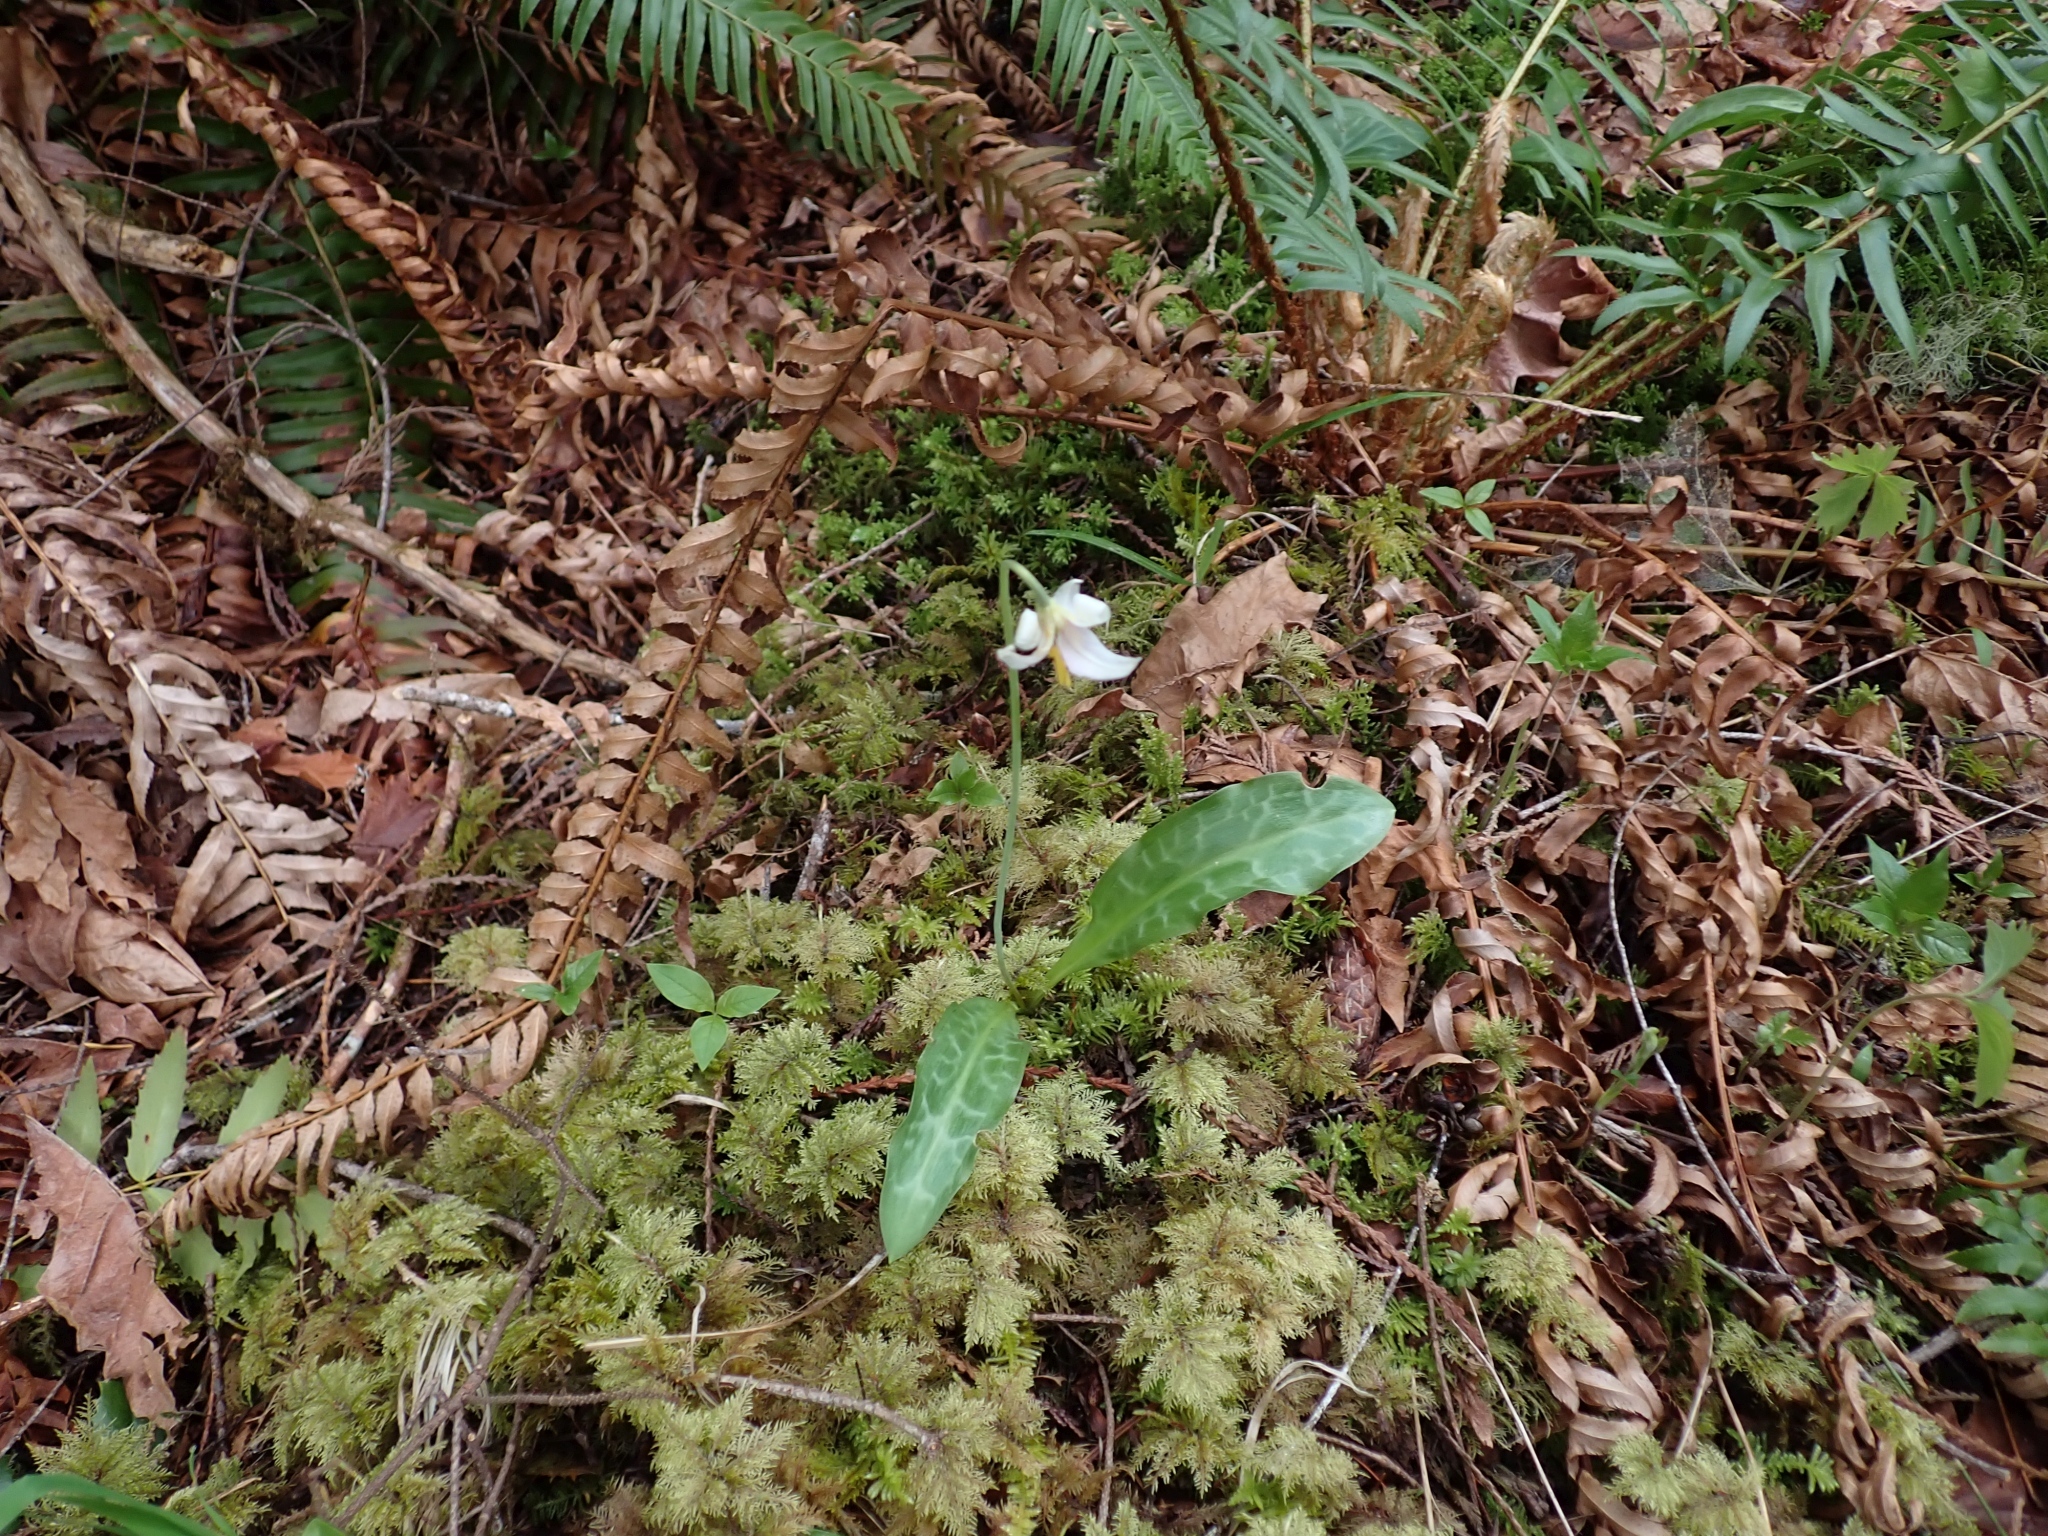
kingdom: Plantae
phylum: Tracheophyta
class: Liliopsida
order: Liliales
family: Liliaceae
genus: Erythronium
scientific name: Erythronium oregonum
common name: Giant adder's-tongue
